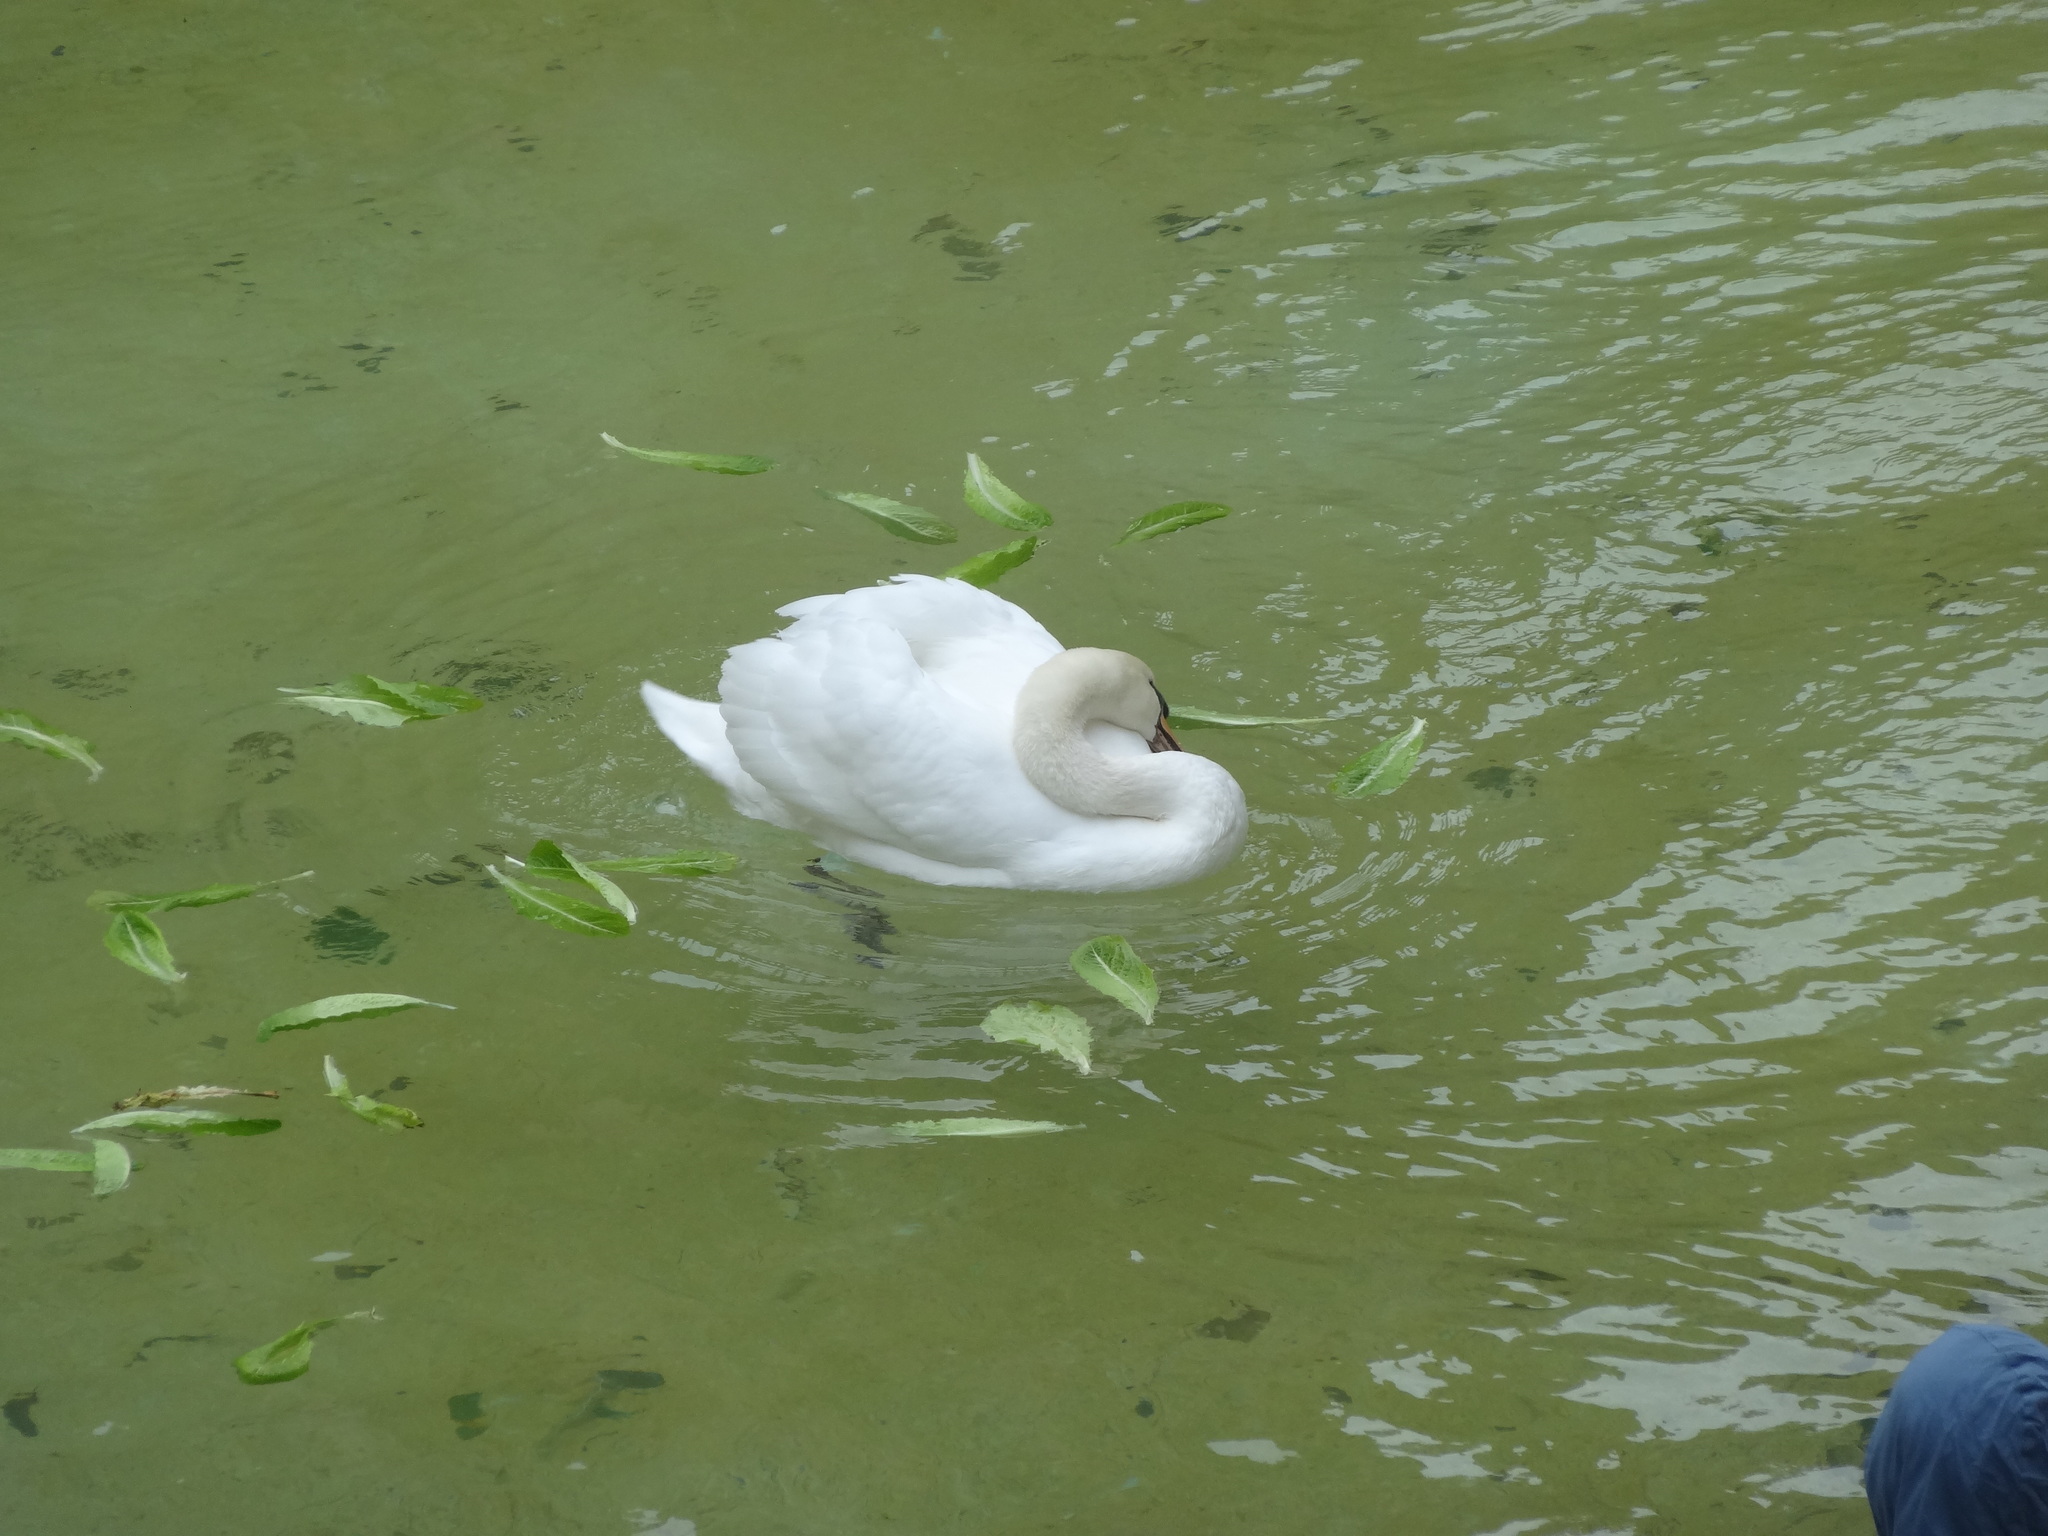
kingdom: Animalia
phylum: Chordata
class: Aves
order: Anseriformes
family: Anatidae
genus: Cygnus
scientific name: Cygnus olor
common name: Mute swan
